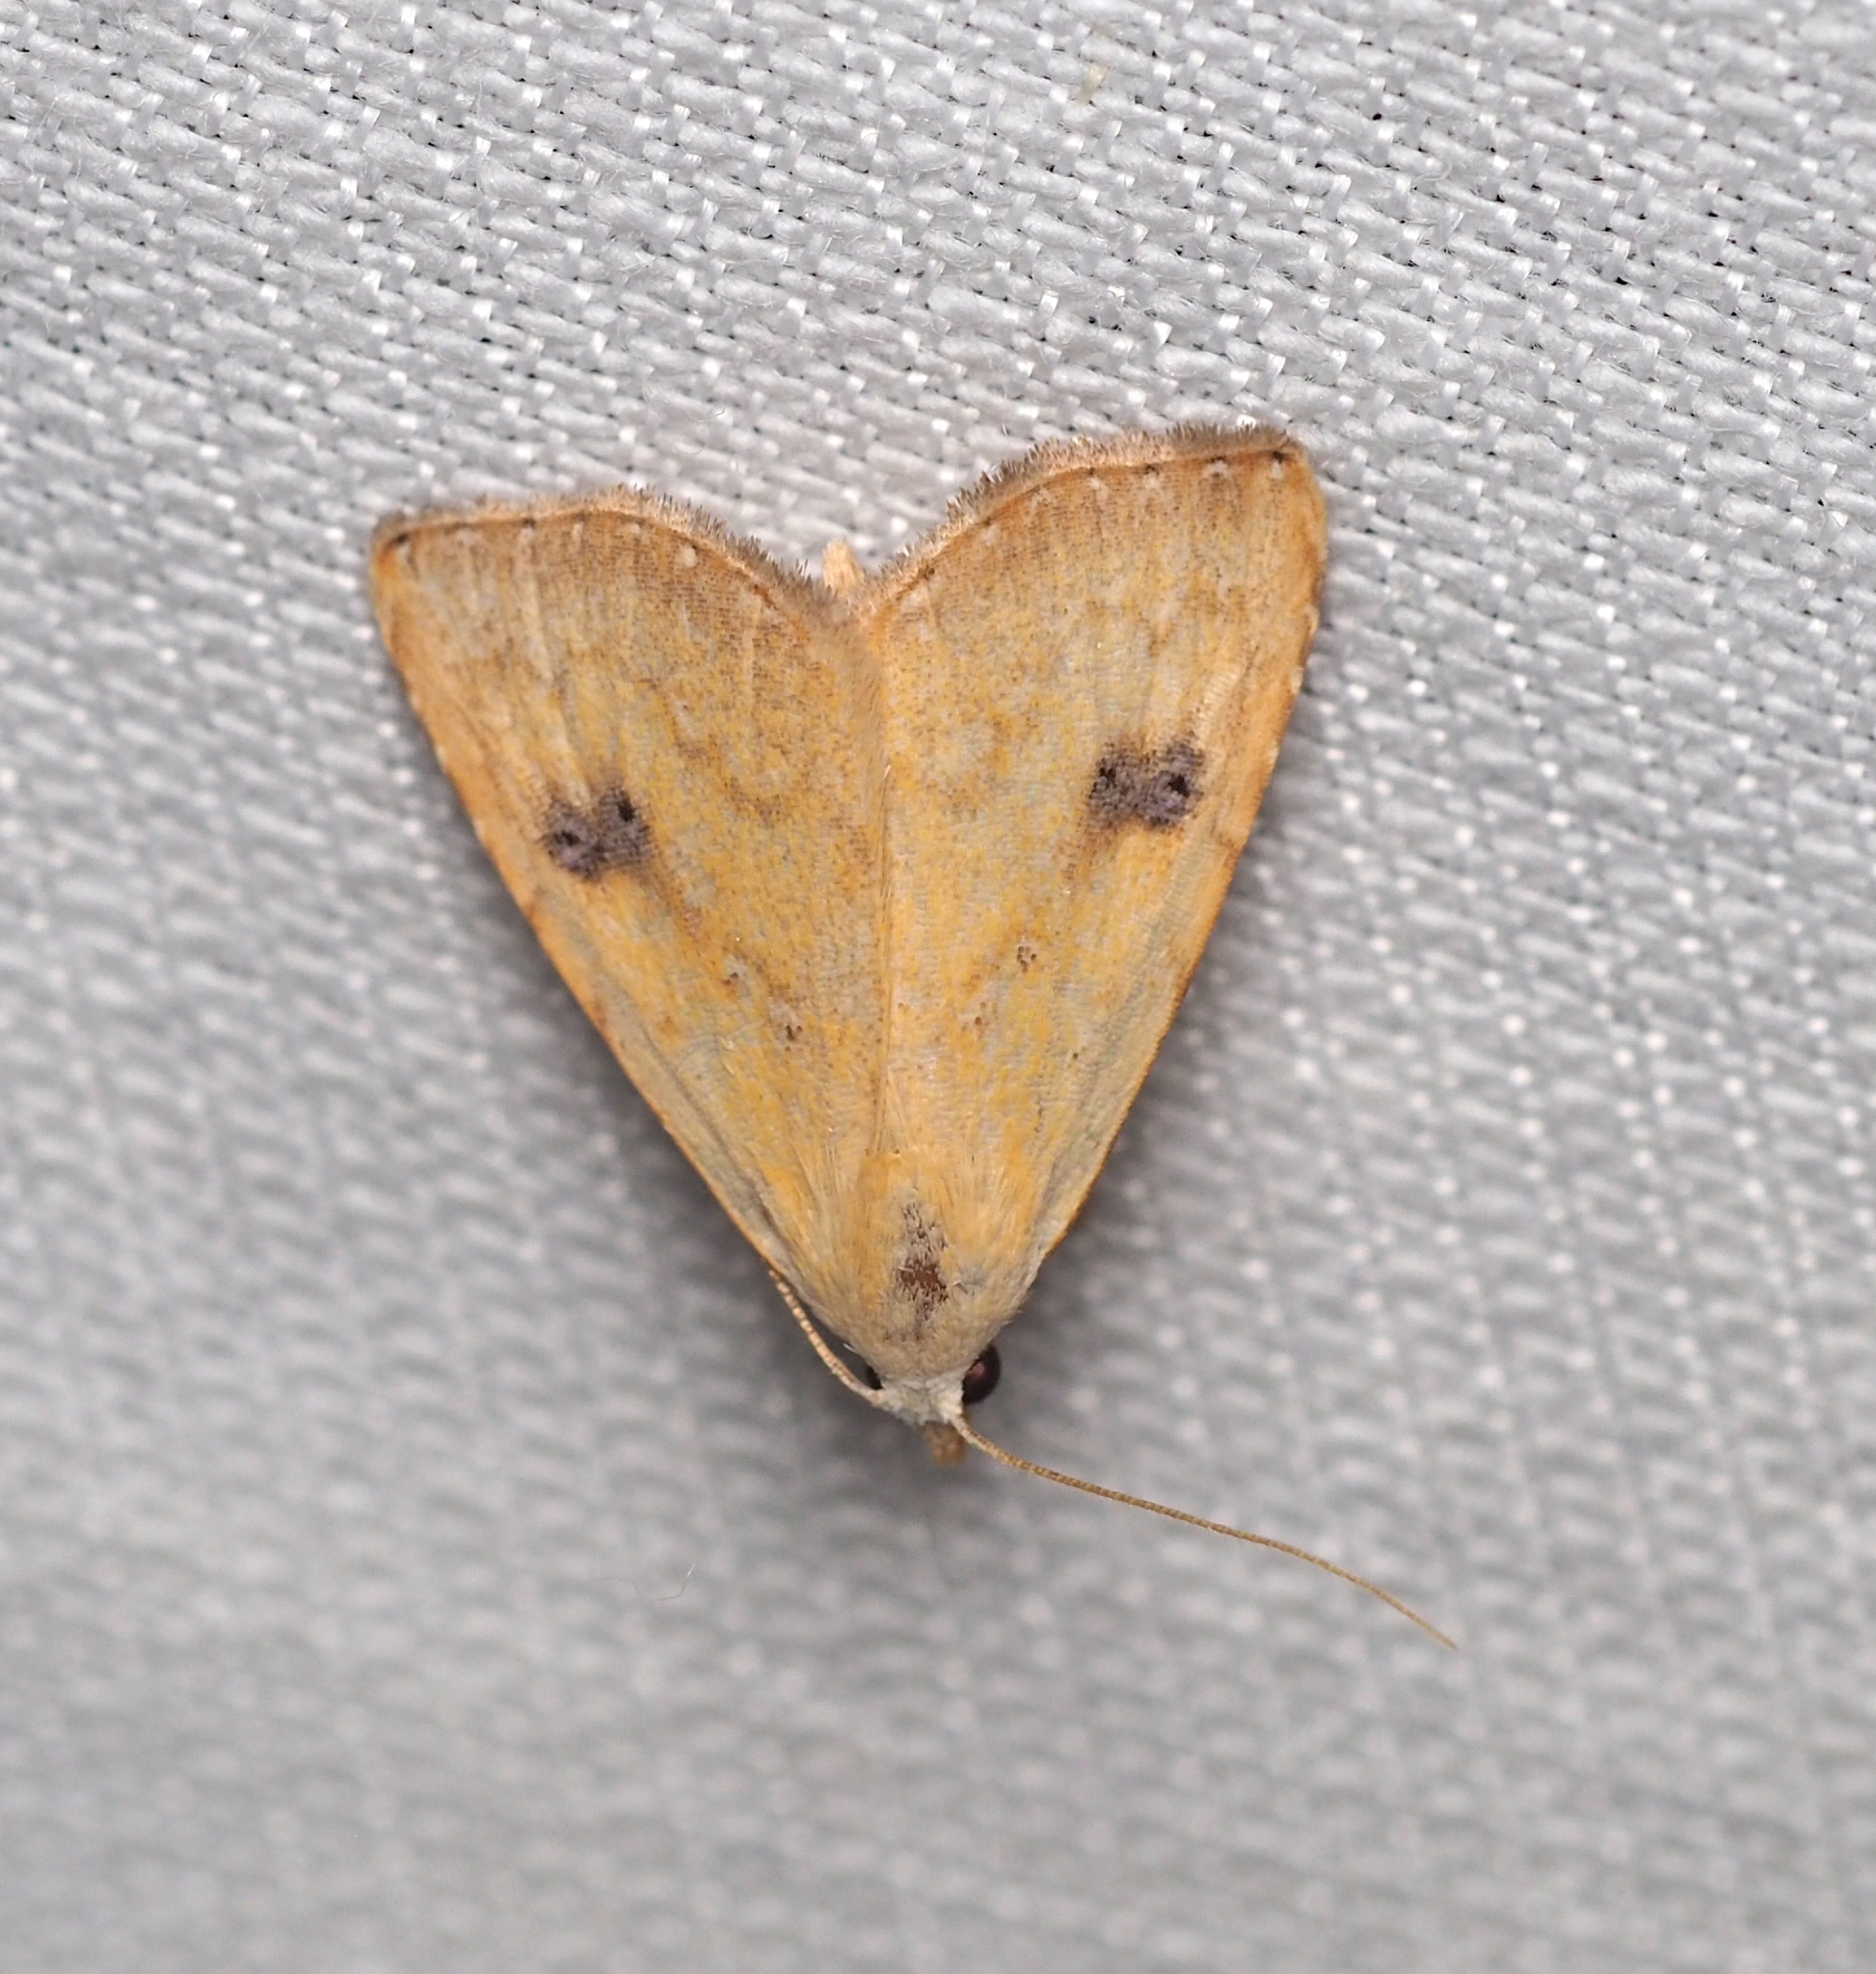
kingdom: Animalia
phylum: Arthropoda
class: Insecta
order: Lepidoptera
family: Erebidae
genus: Rivula
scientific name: Rivula sericealis
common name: Straw dot
